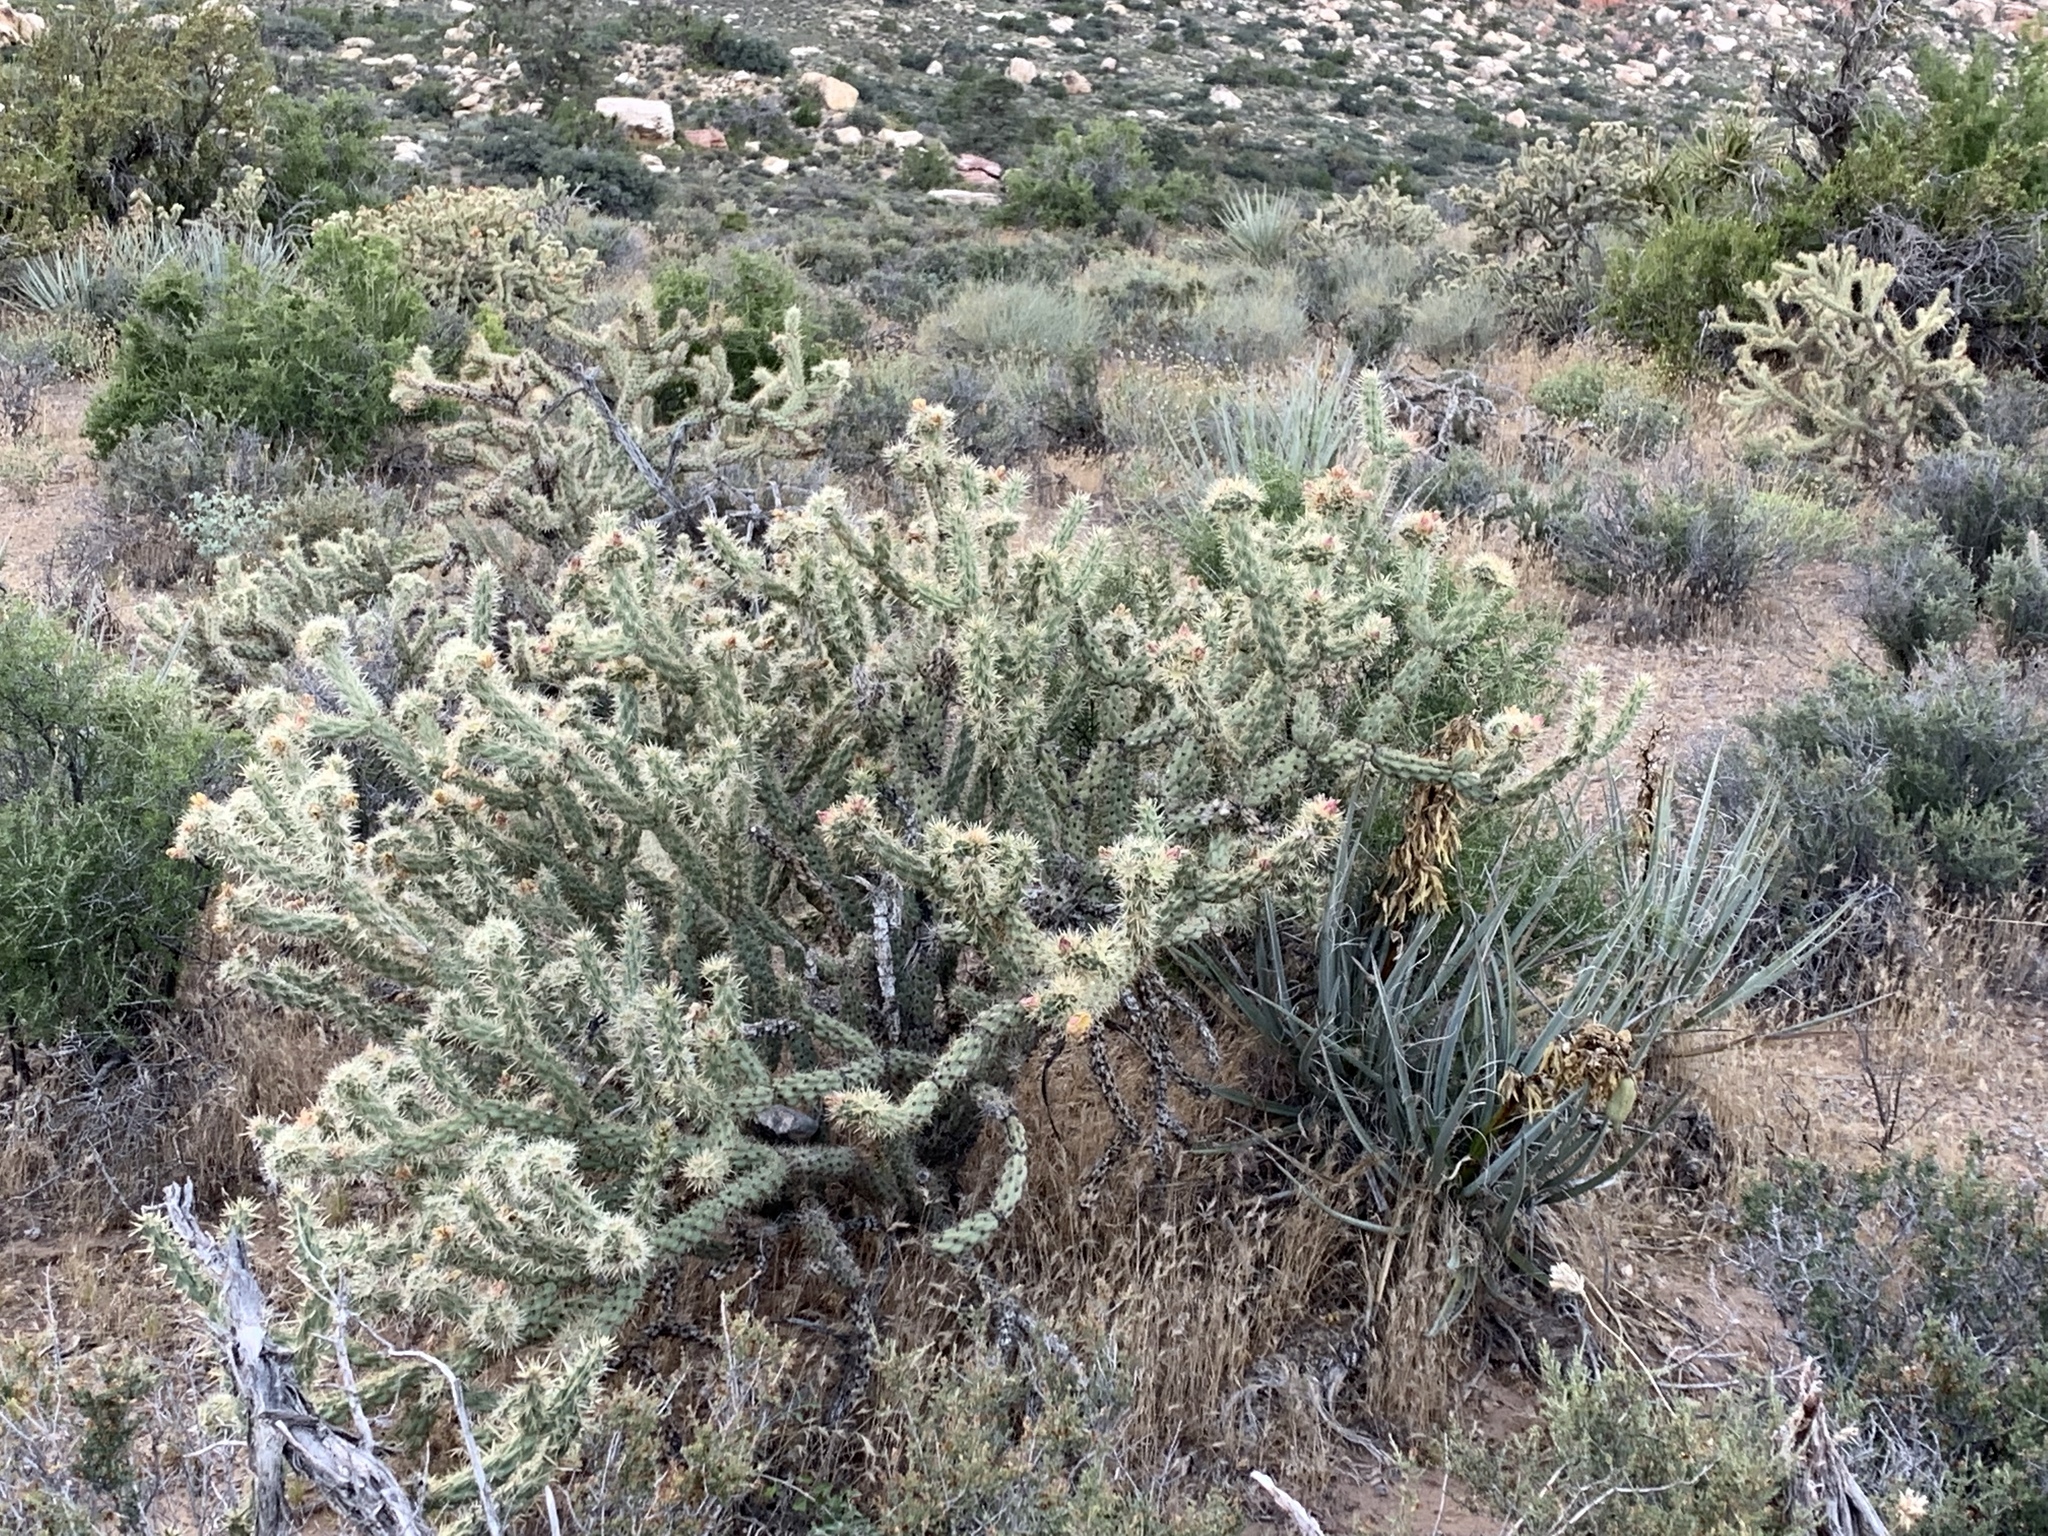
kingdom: Plantae
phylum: Tracheophyta
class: Magnoliopsida
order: Caryophyllales
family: Cactaceae
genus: Cylindropuntia
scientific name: Cylindropuntia acanthocarpa
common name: Buckhorn cholla
